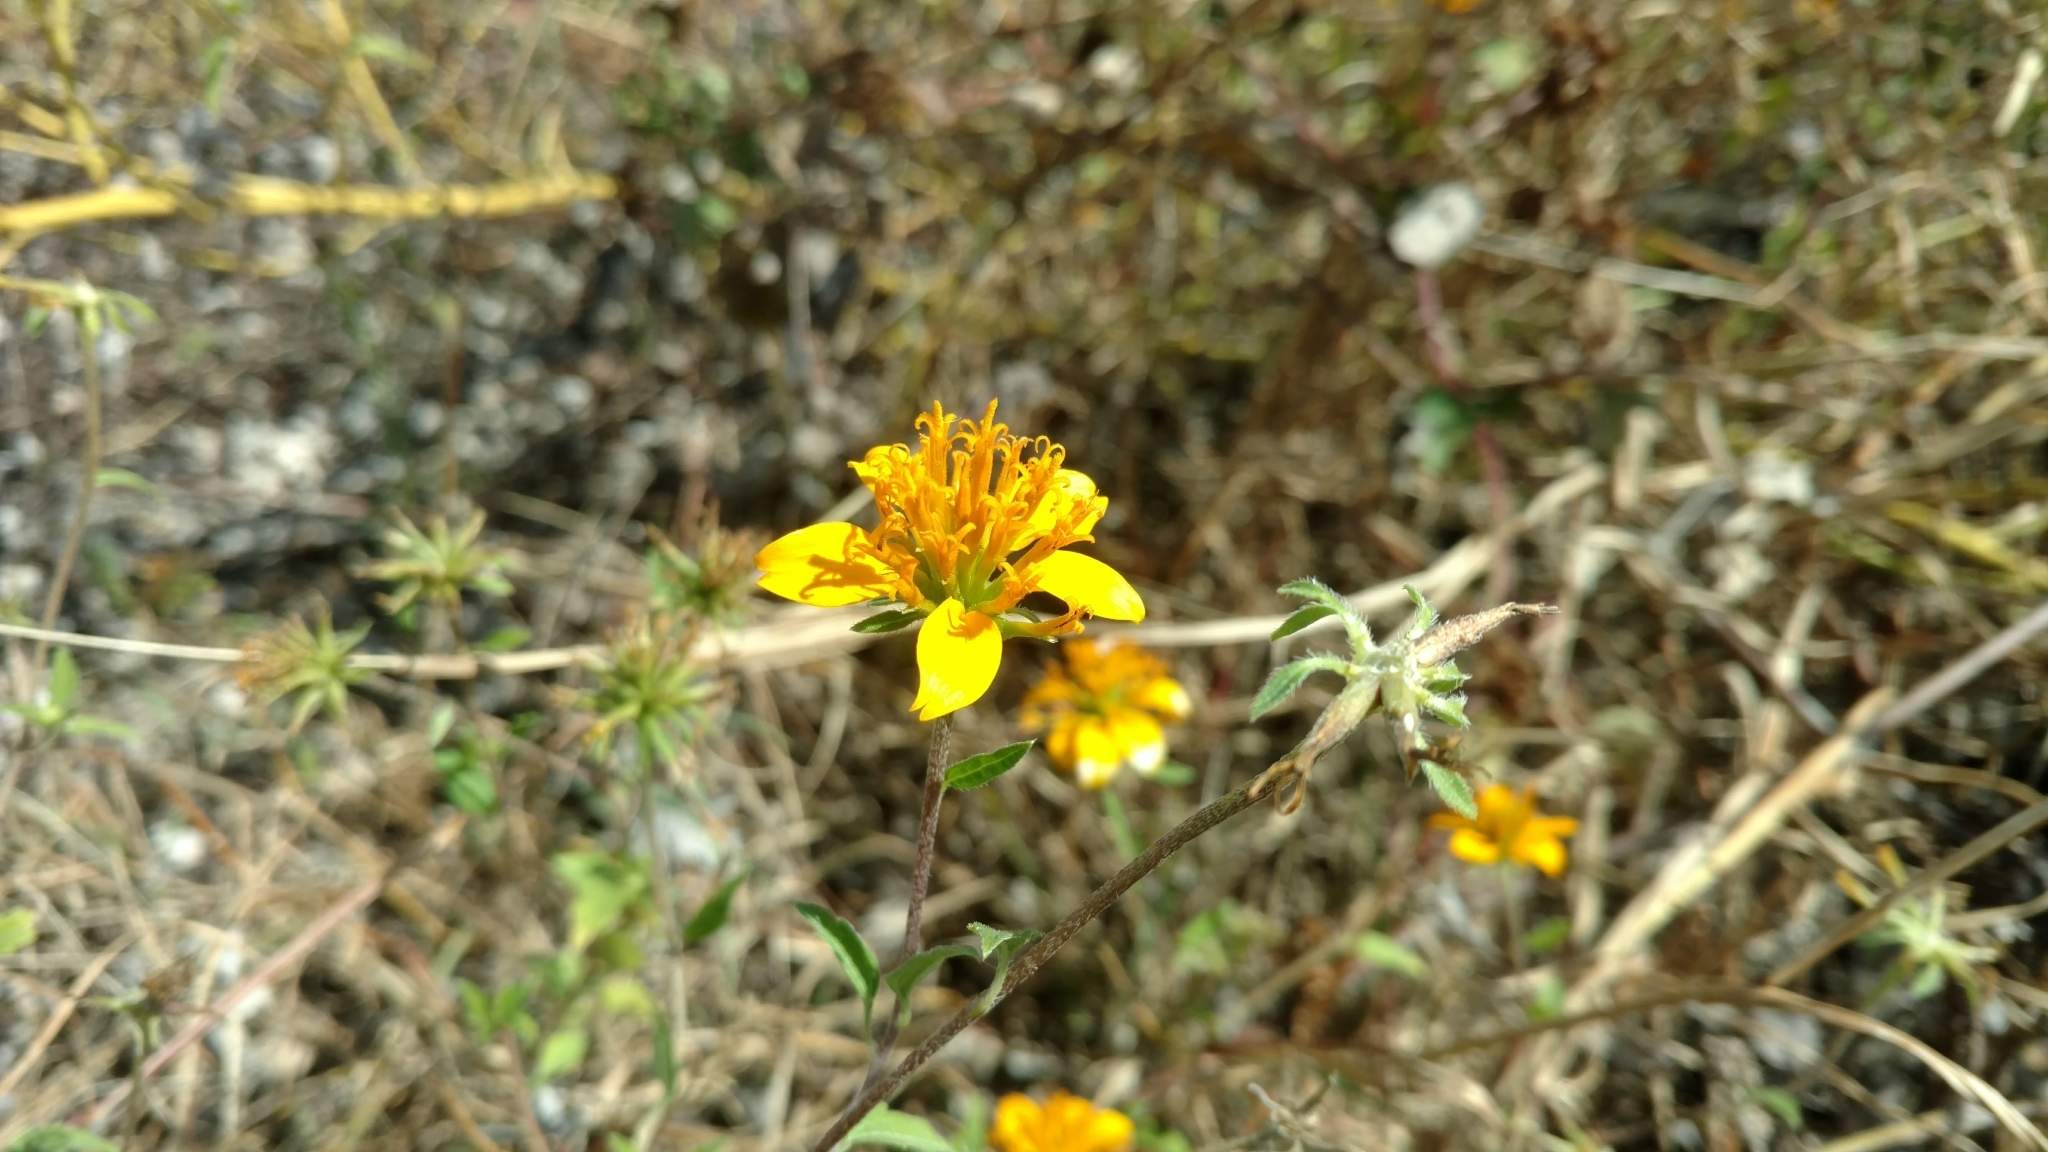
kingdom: Plantae
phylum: Tracheophyta
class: Magnoliopsida
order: Asterales
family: Asteraceae
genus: Sclerocarpus
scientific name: Sclerocarpus uniserialis
